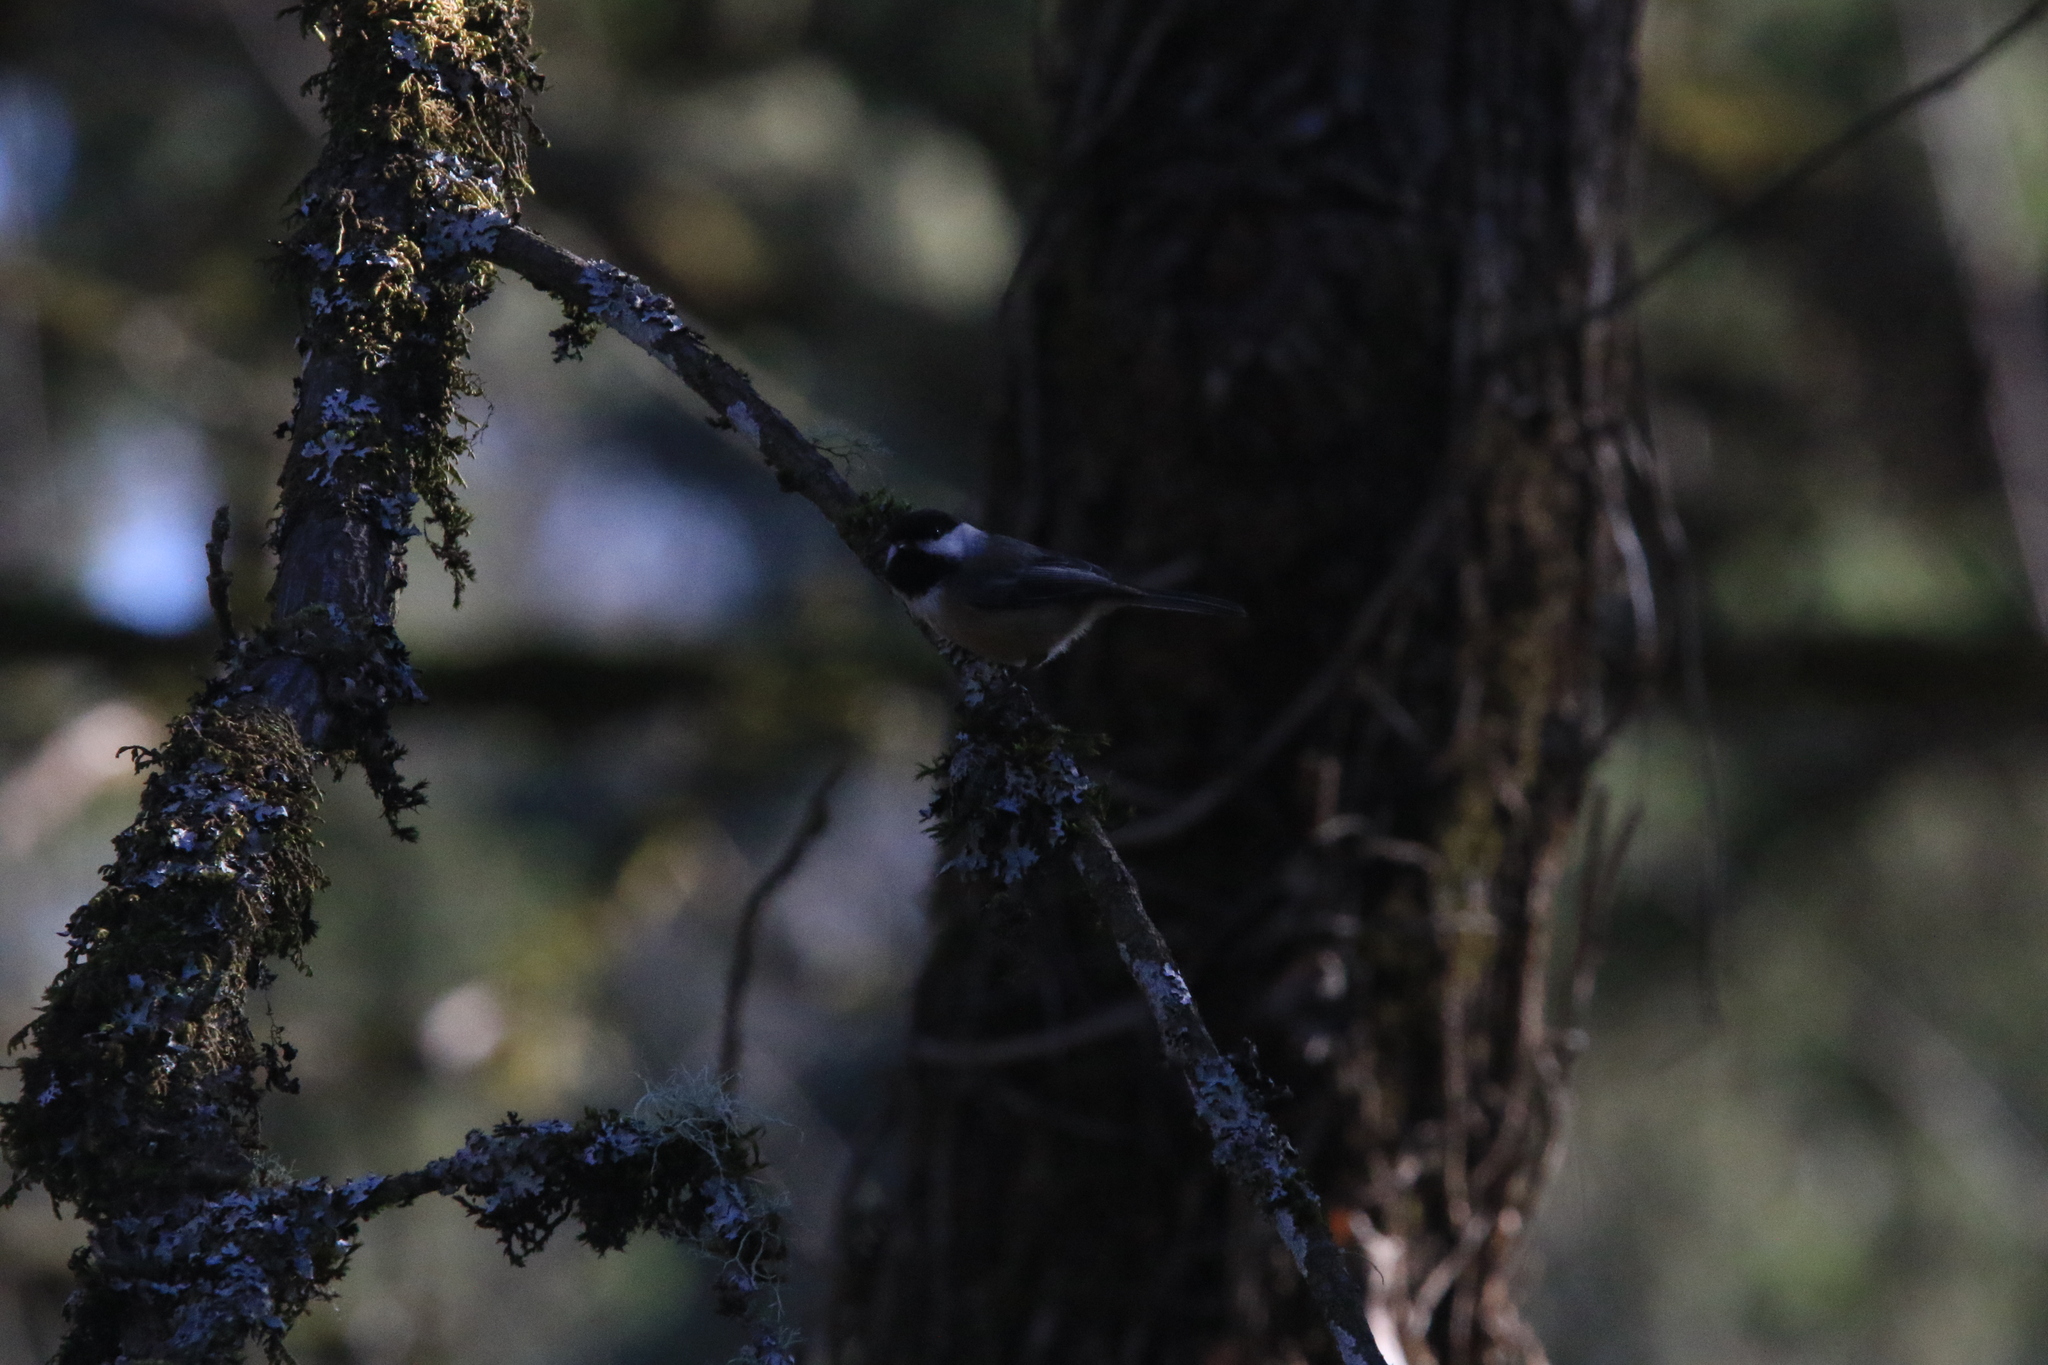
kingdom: Animalia
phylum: Chordata
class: Aves
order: Passeriformes
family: Paridae
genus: Poecile
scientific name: Poecile atricapillus
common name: Black-capped chickadee
